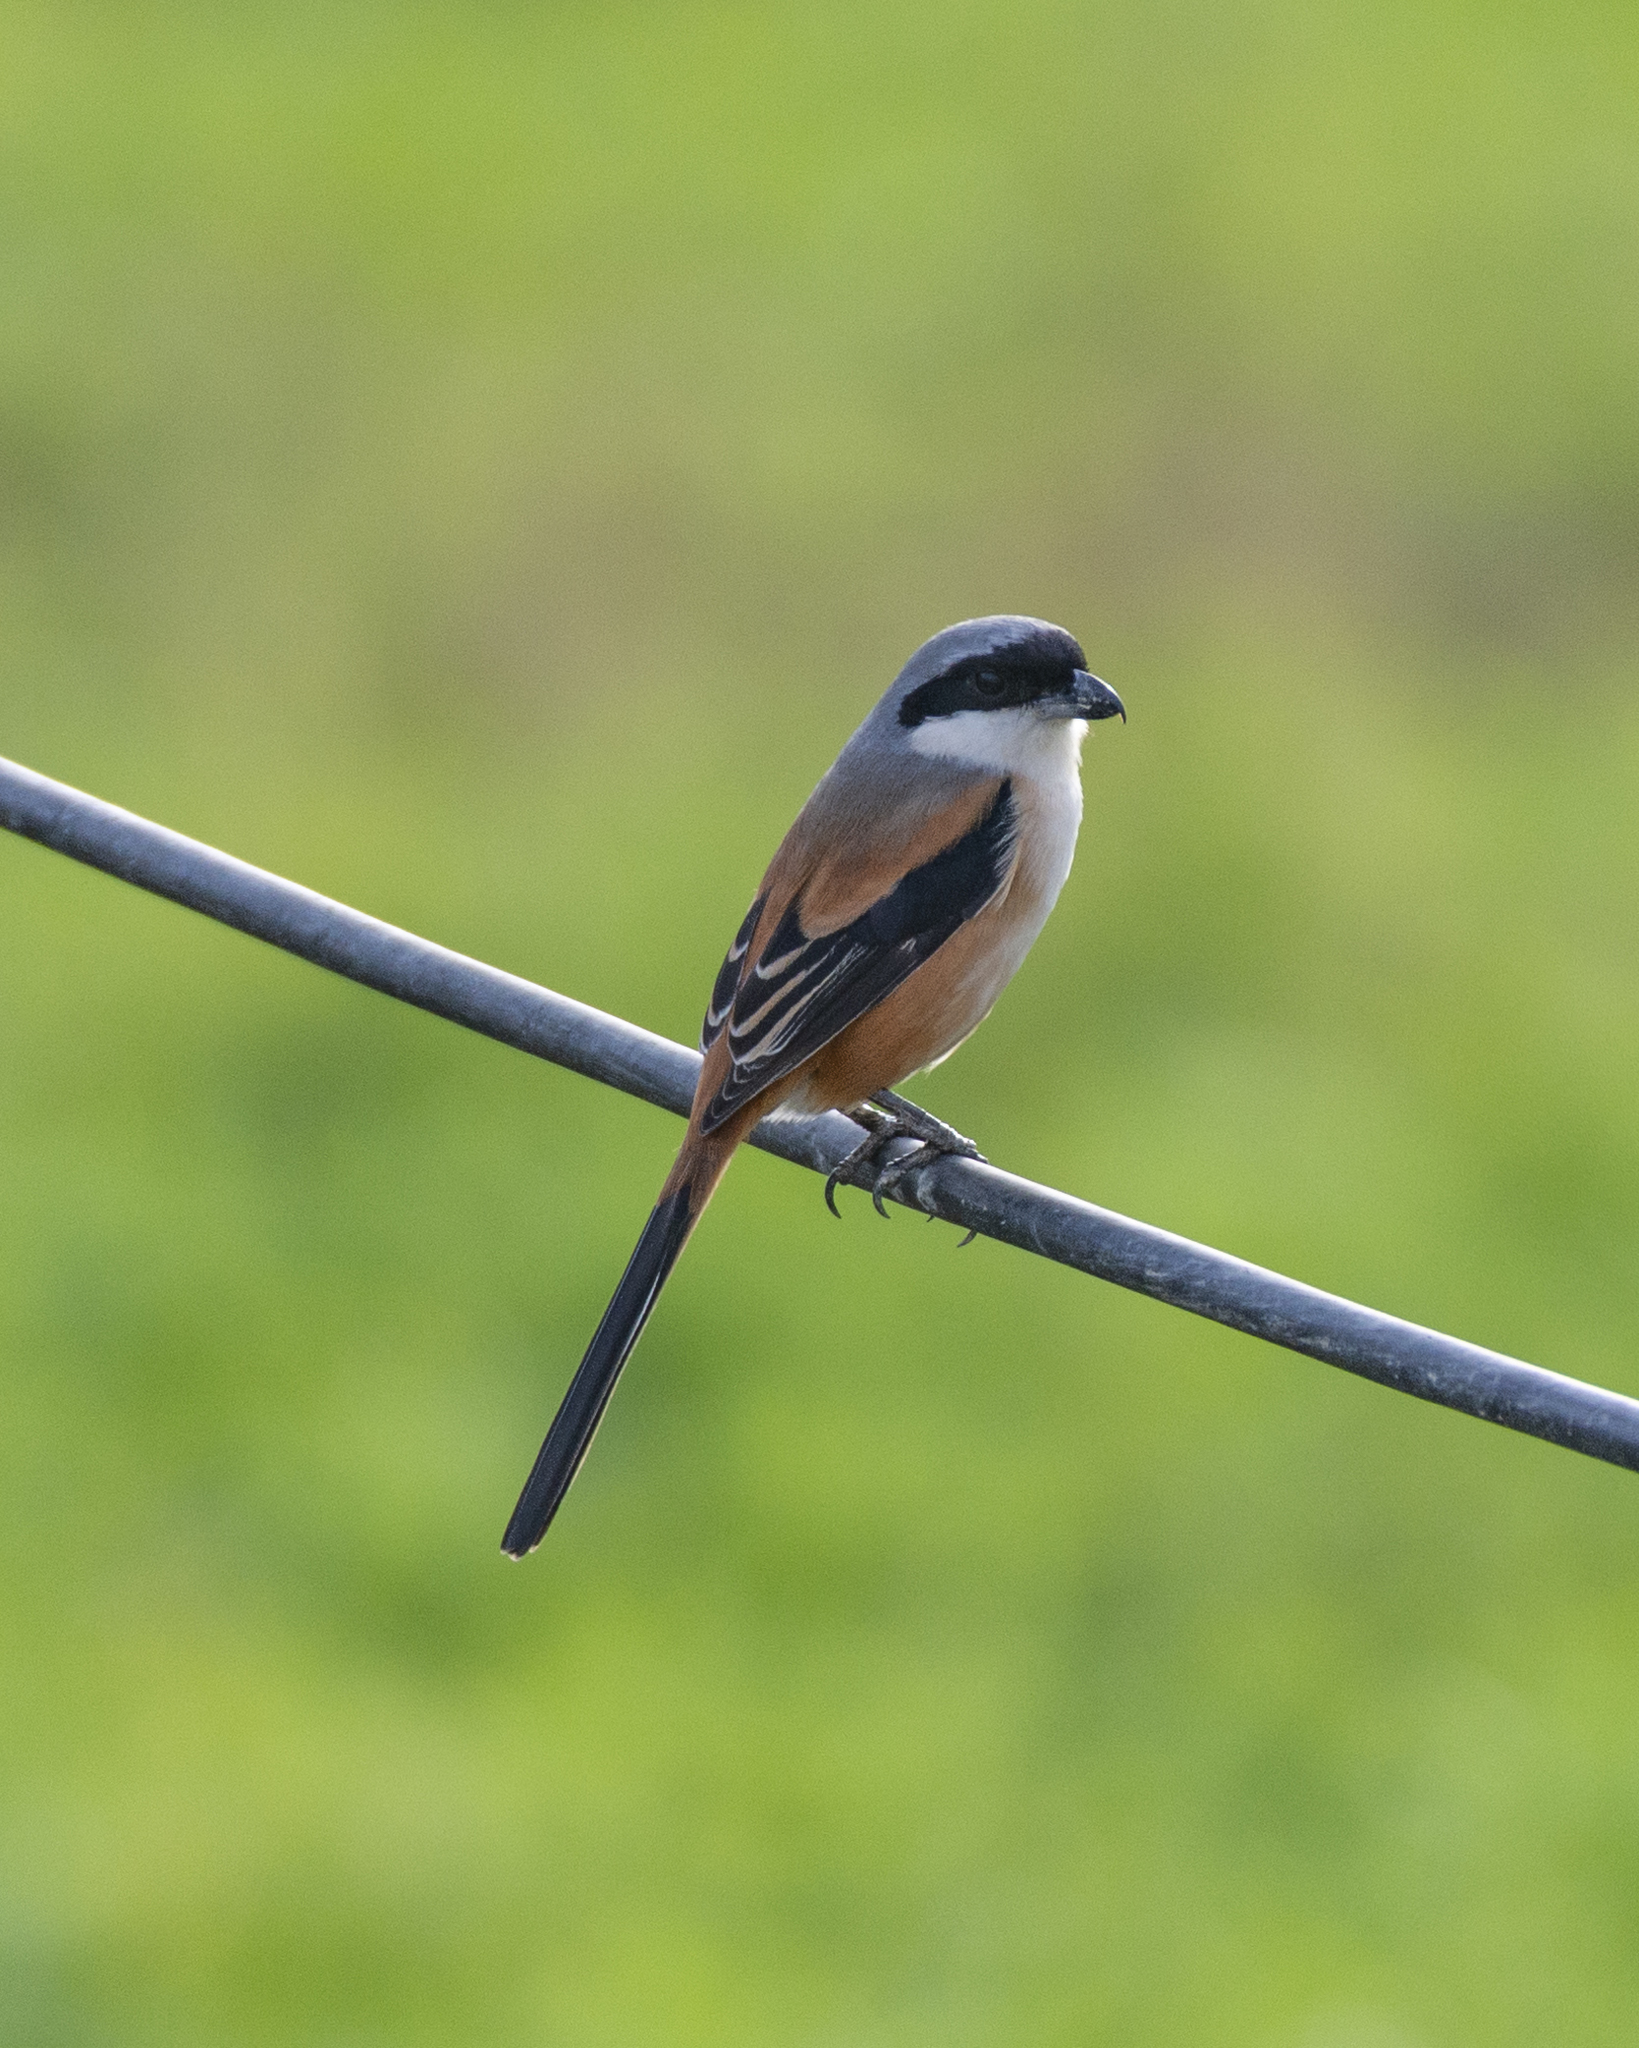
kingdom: Animalia
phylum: Chordata
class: Aves
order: Passeriformes
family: Laniidae
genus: Lanius
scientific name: Lanius schach
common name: Long-tailed shrike
